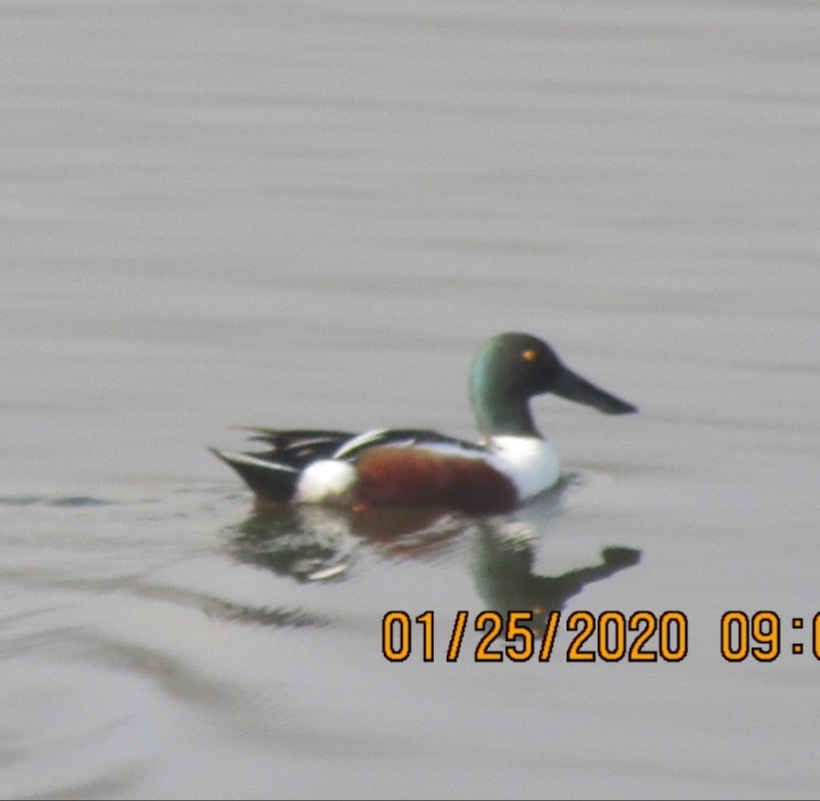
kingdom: Animalia
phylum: Chordata
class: Aves
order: Anseriformes
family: Anatidae
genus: Spatula
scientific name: Spatula clypeata
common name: Northern shoveler
